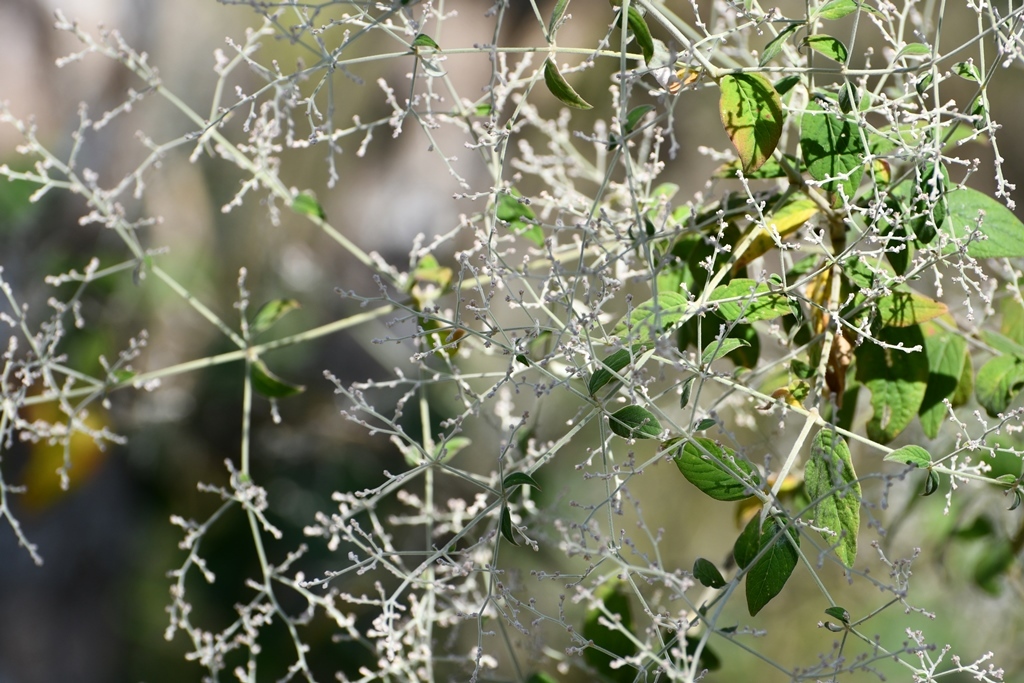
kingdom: Plantae
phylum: Tracheophyta
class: Magnoliopsida
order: Caryophyllales
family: Amaranthaceae
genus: Iresine
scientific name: Iresine latifolia
